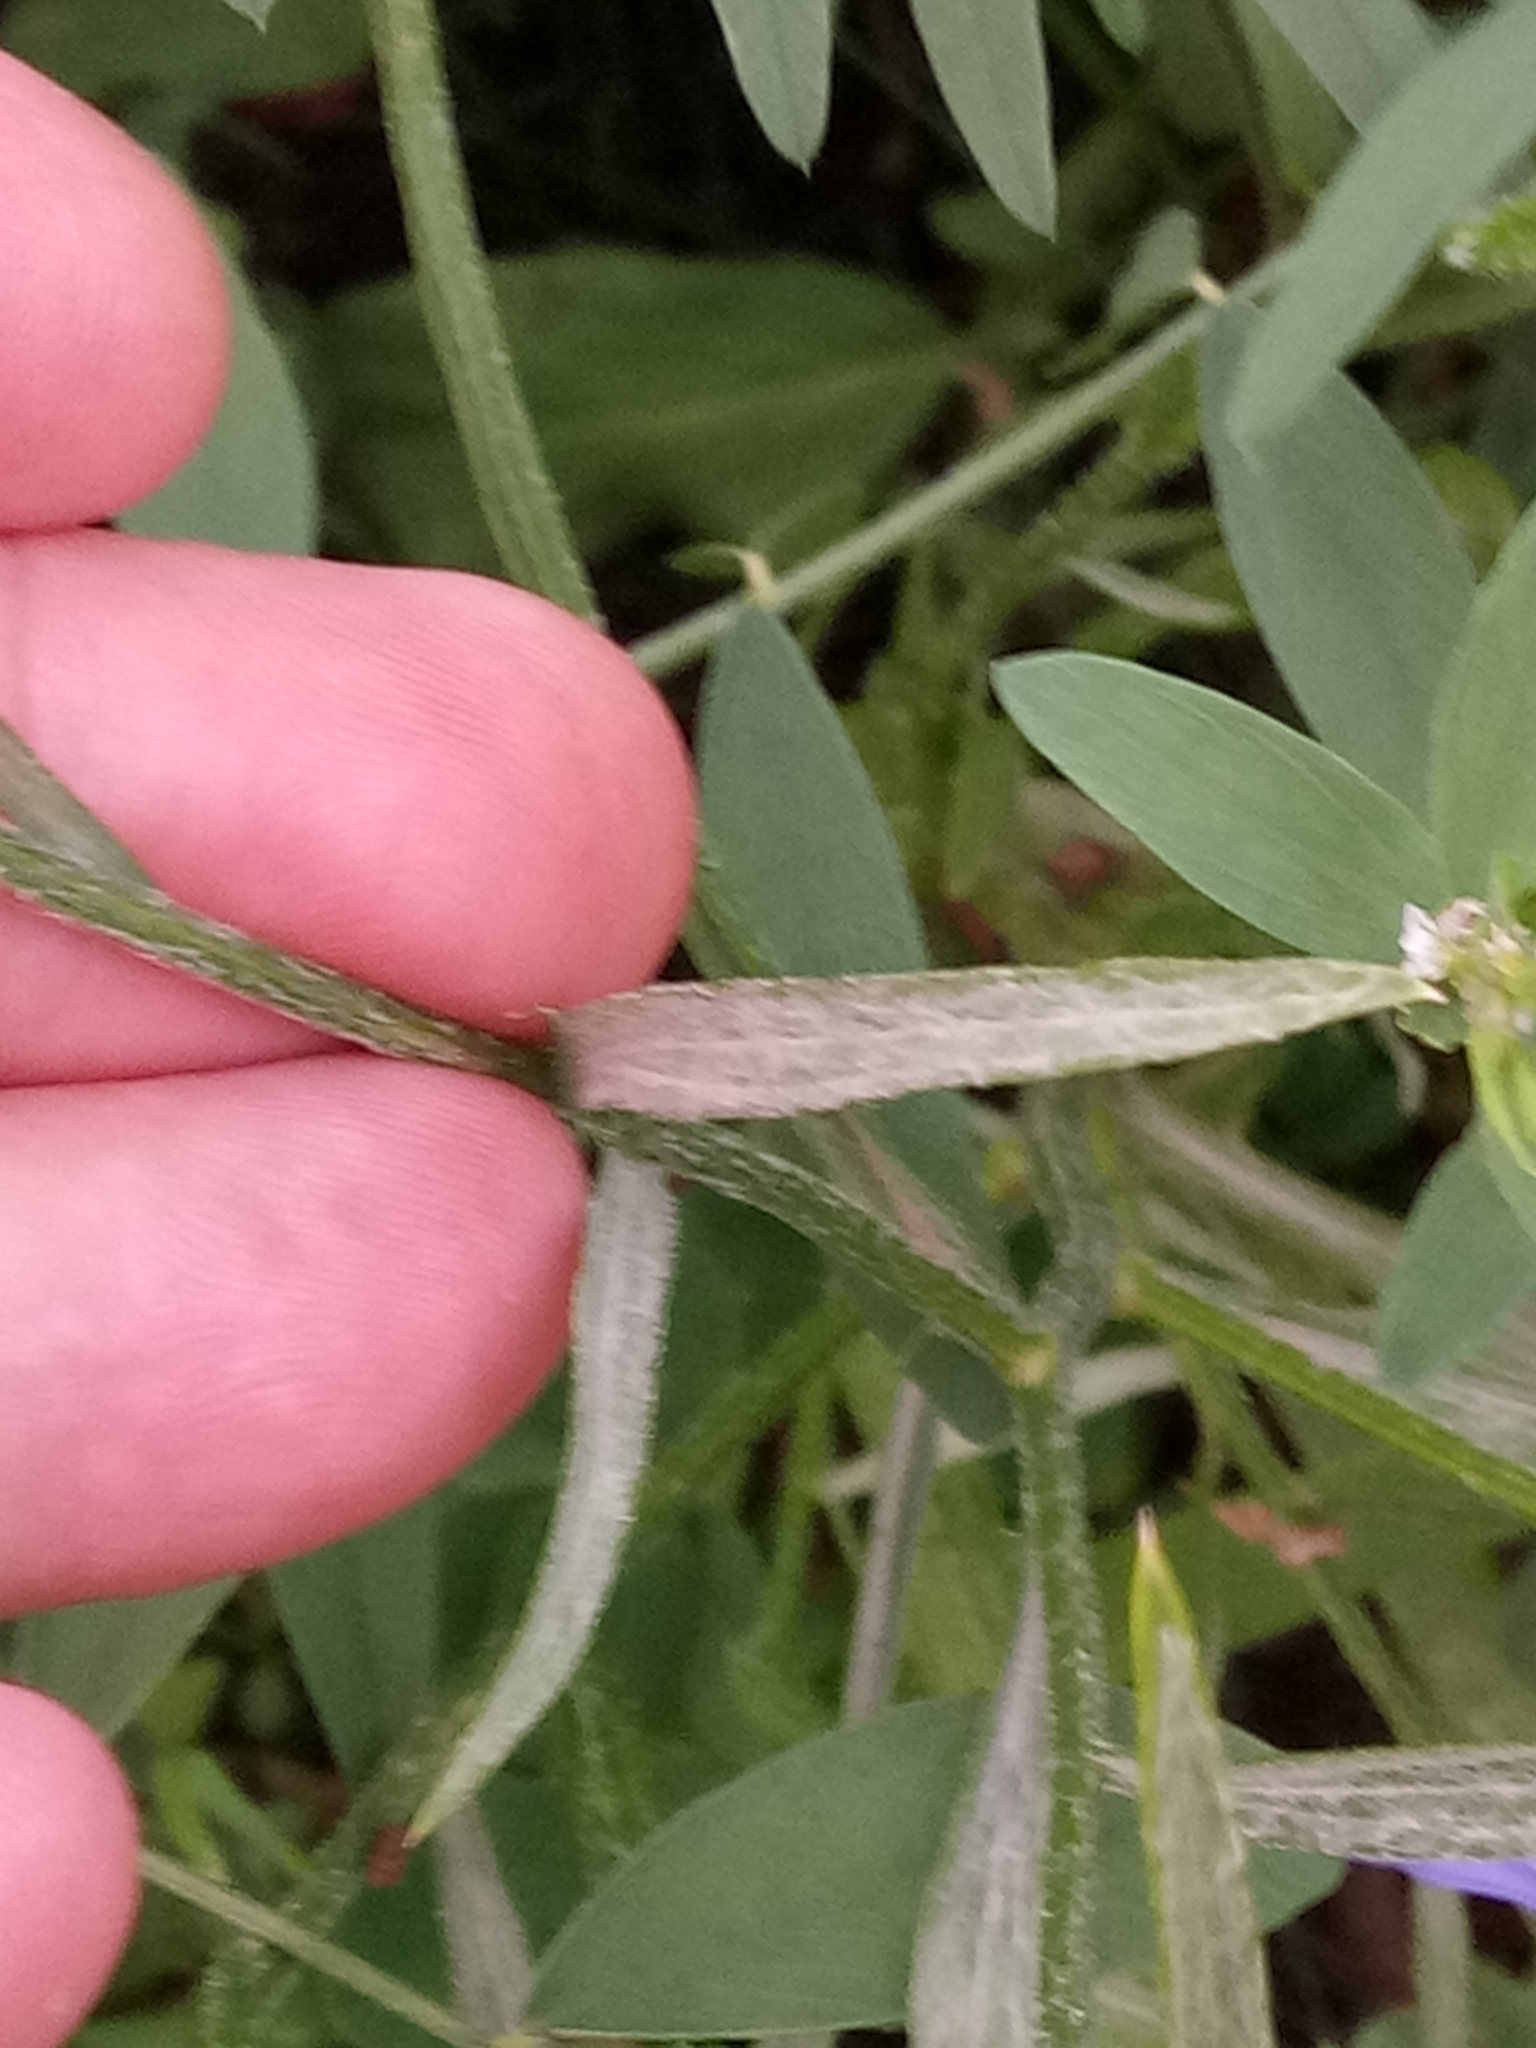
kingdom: Plantae
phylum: Tracheophyta
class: Magnoliopsida
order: Asterales
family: Asteraceae
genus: Centaurea
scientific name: Centaurea cyanus
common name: Cornflower
